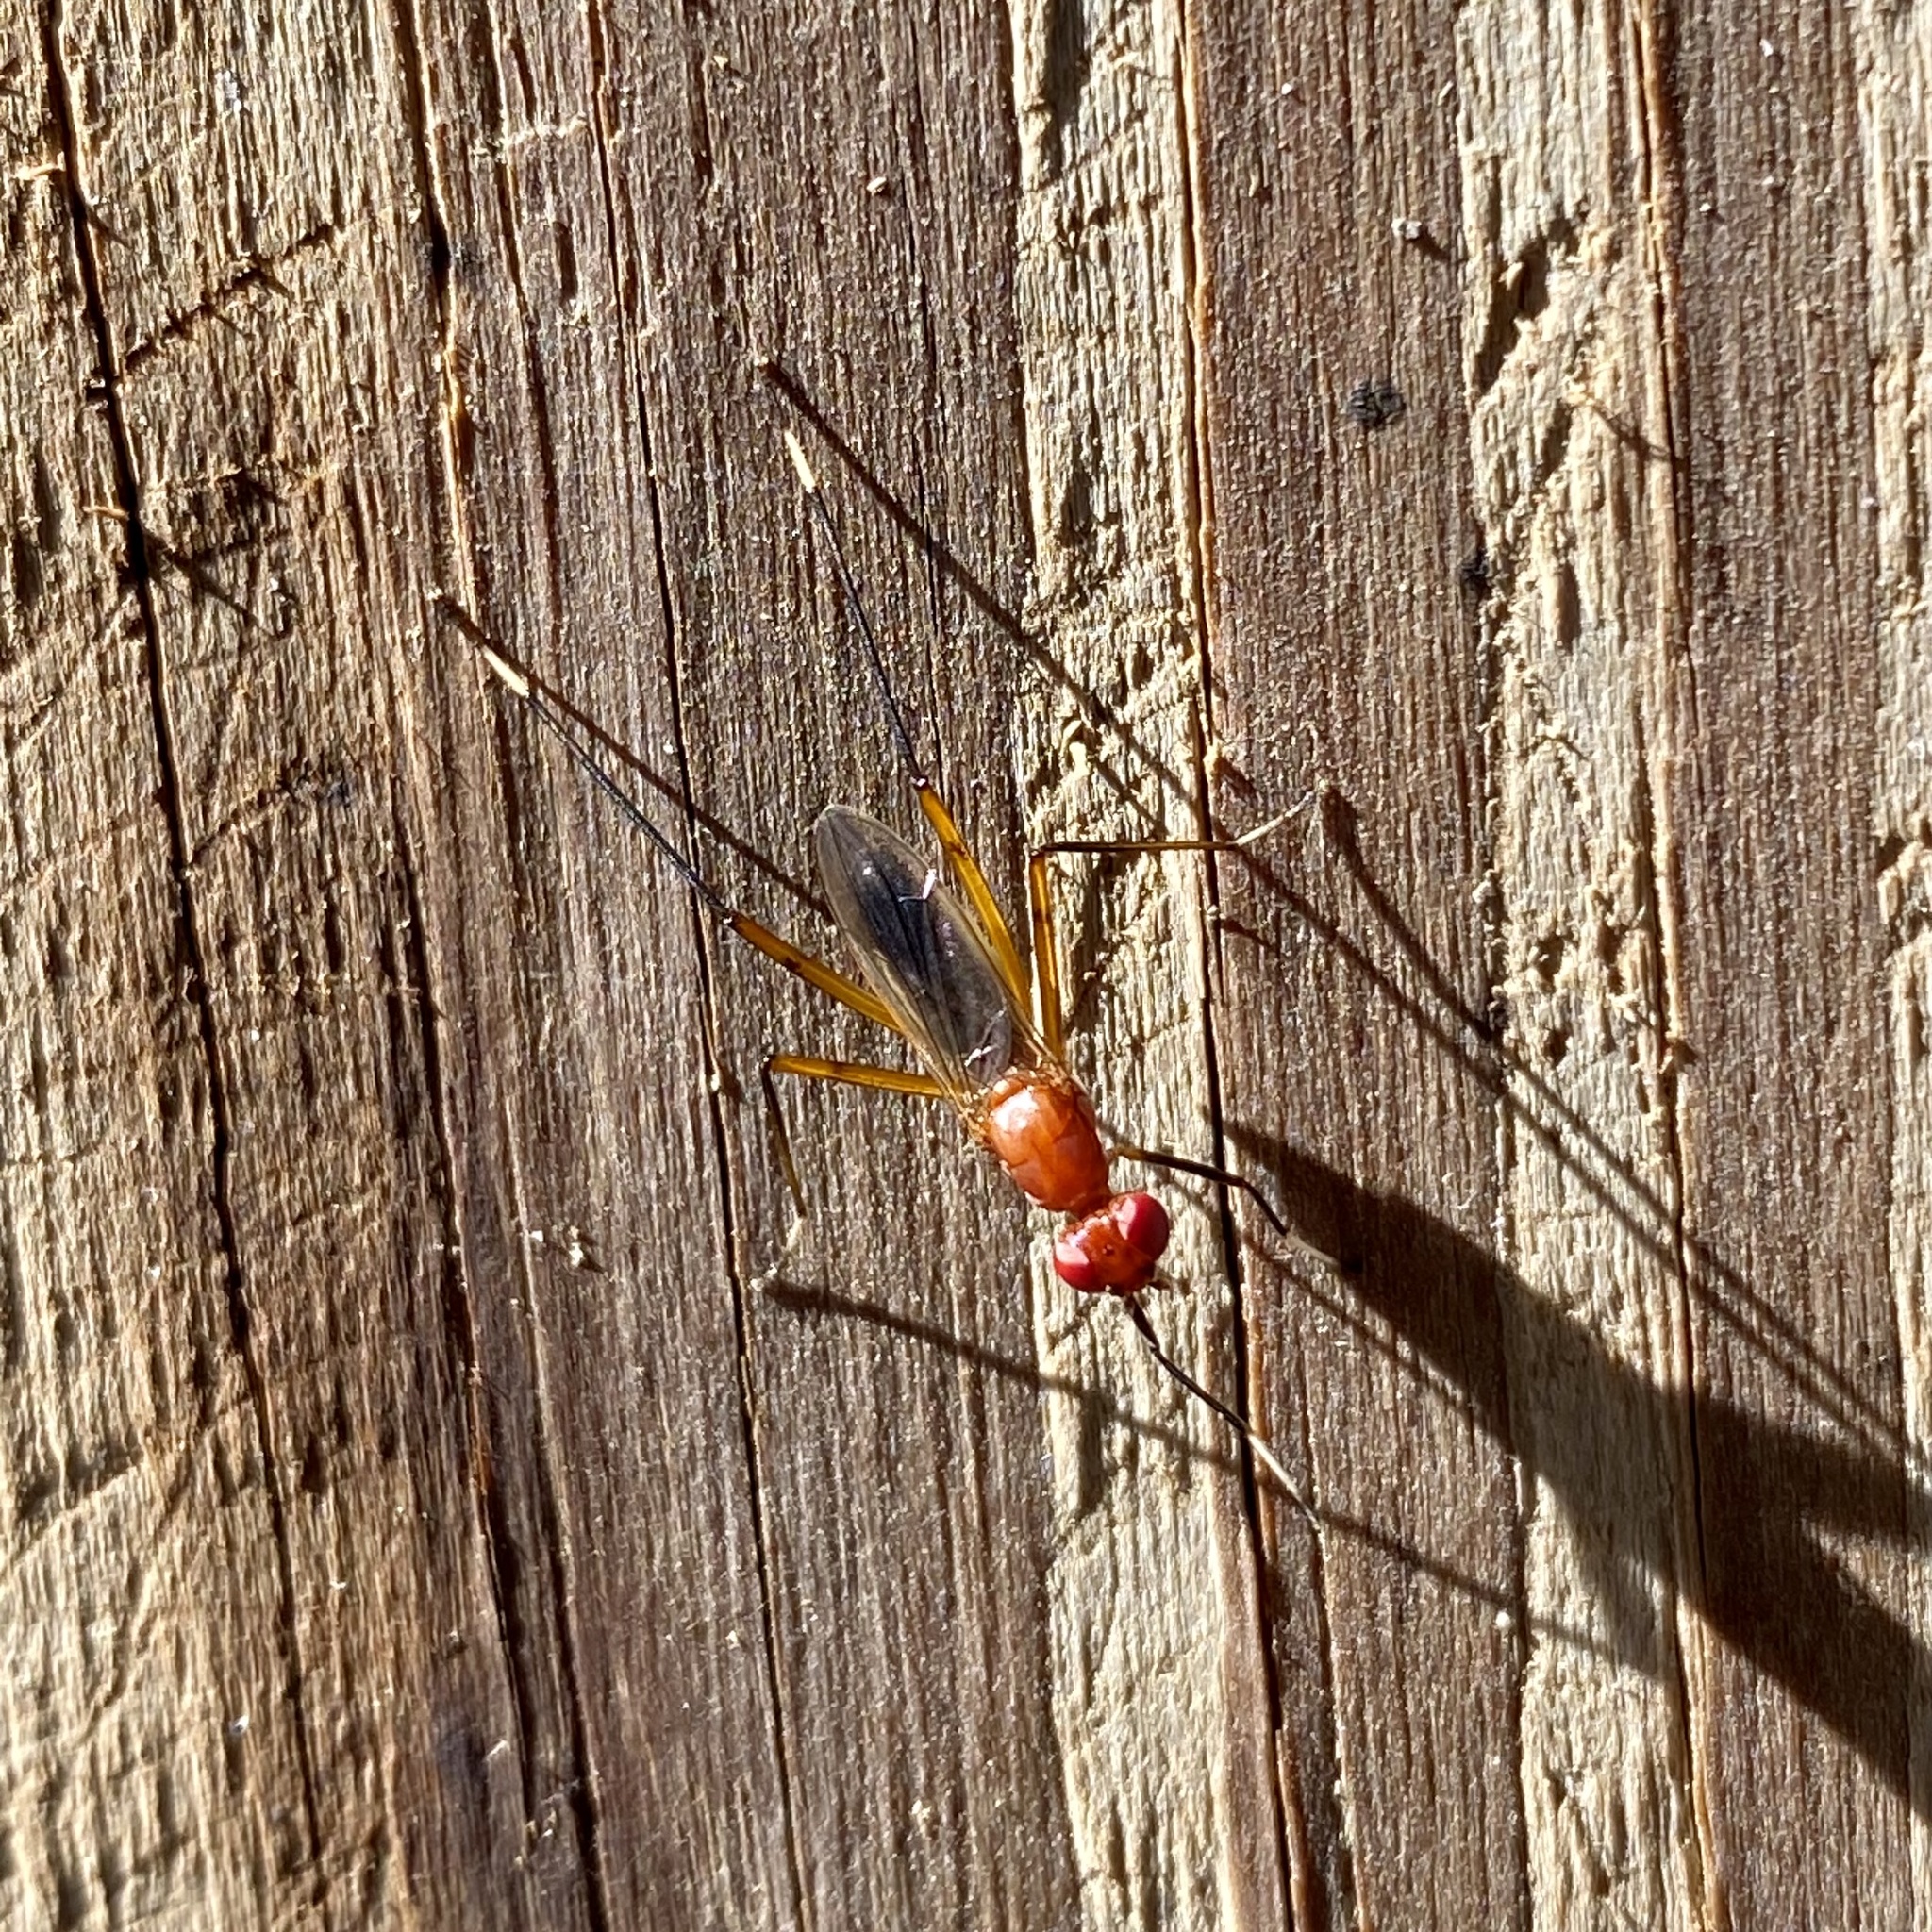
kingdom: Animalia
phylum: Arthropoda
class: Insecta
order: Diptera
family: Micropezidae
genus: Grallipeza
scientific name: Grallipeza nebulosa
